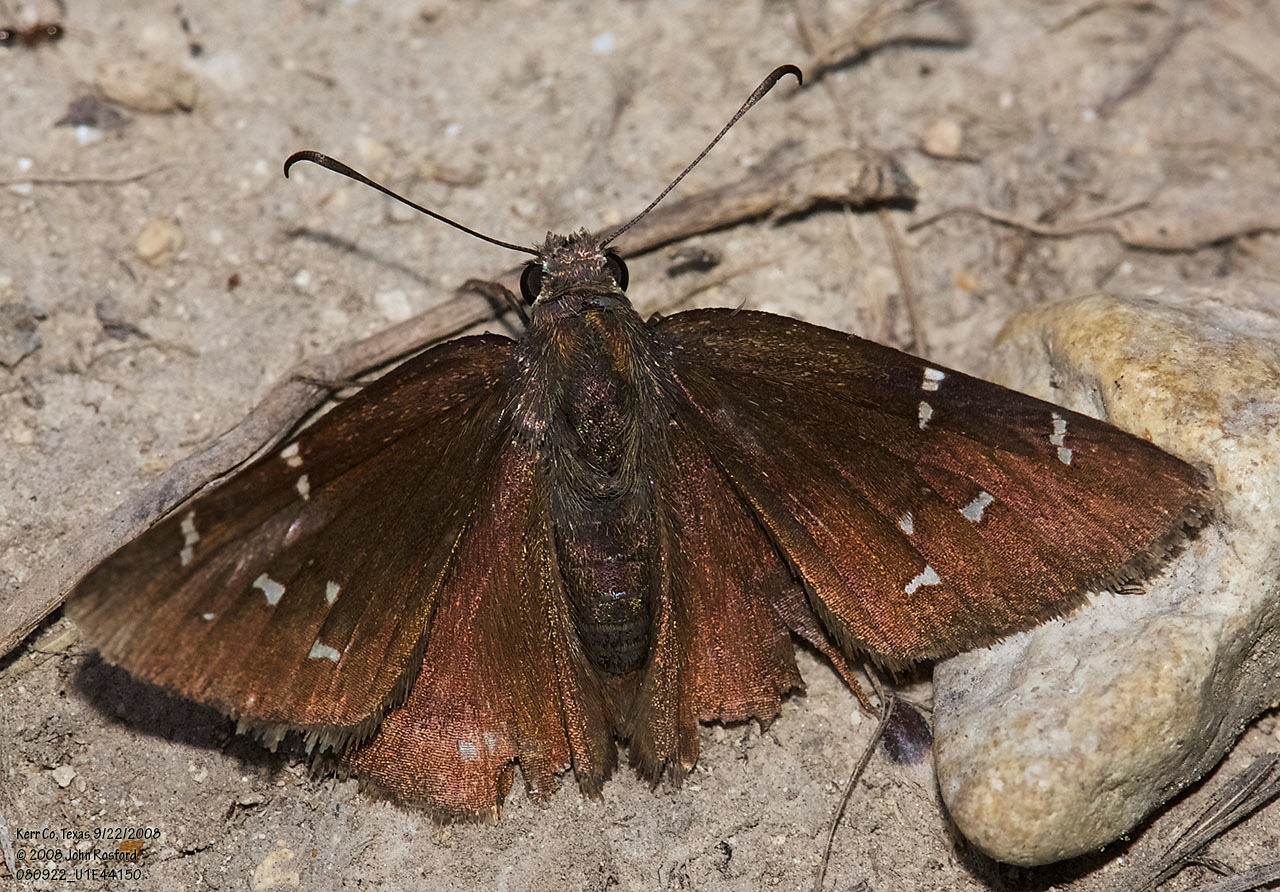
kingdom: Animalia
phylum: Arthropoda
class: Insecta
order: Lepidoptera
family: Hesperiidae
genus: Thorybes
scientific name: Thorybes pylades
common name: Northern cloudywing
